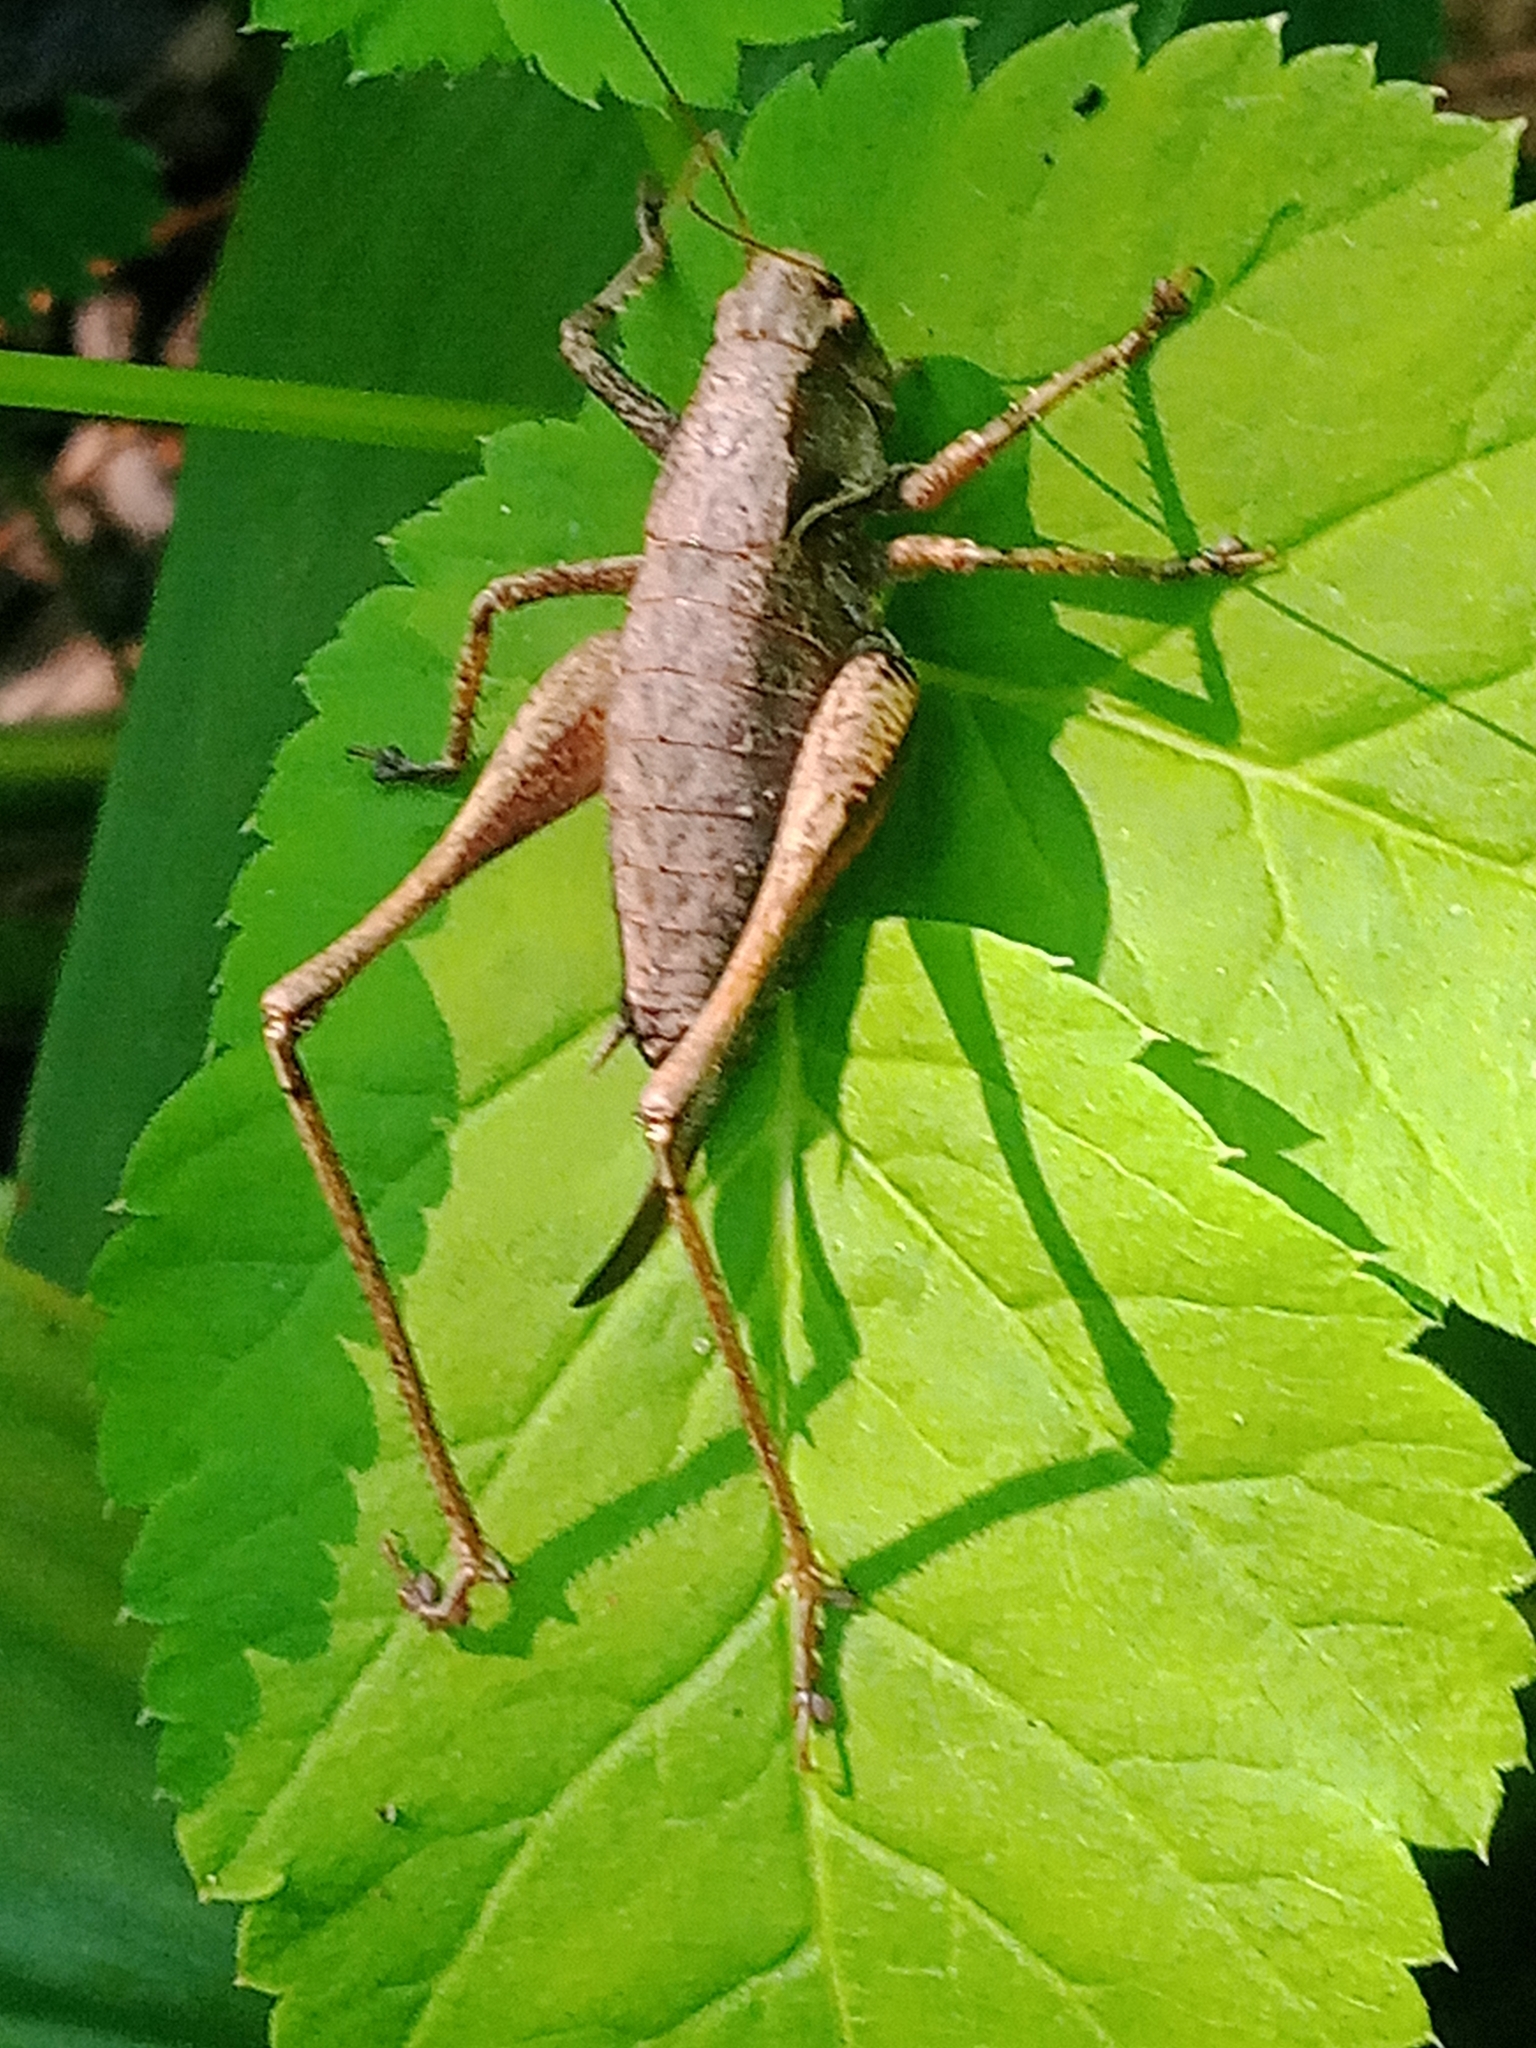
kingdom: Animalia
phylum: Arthropoda
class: Insecta
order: Orthoptera
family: Tettigoniidae
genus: Pholidoptera
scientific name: Pholidoptera griseoaptera
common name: Dark bush-cricket
